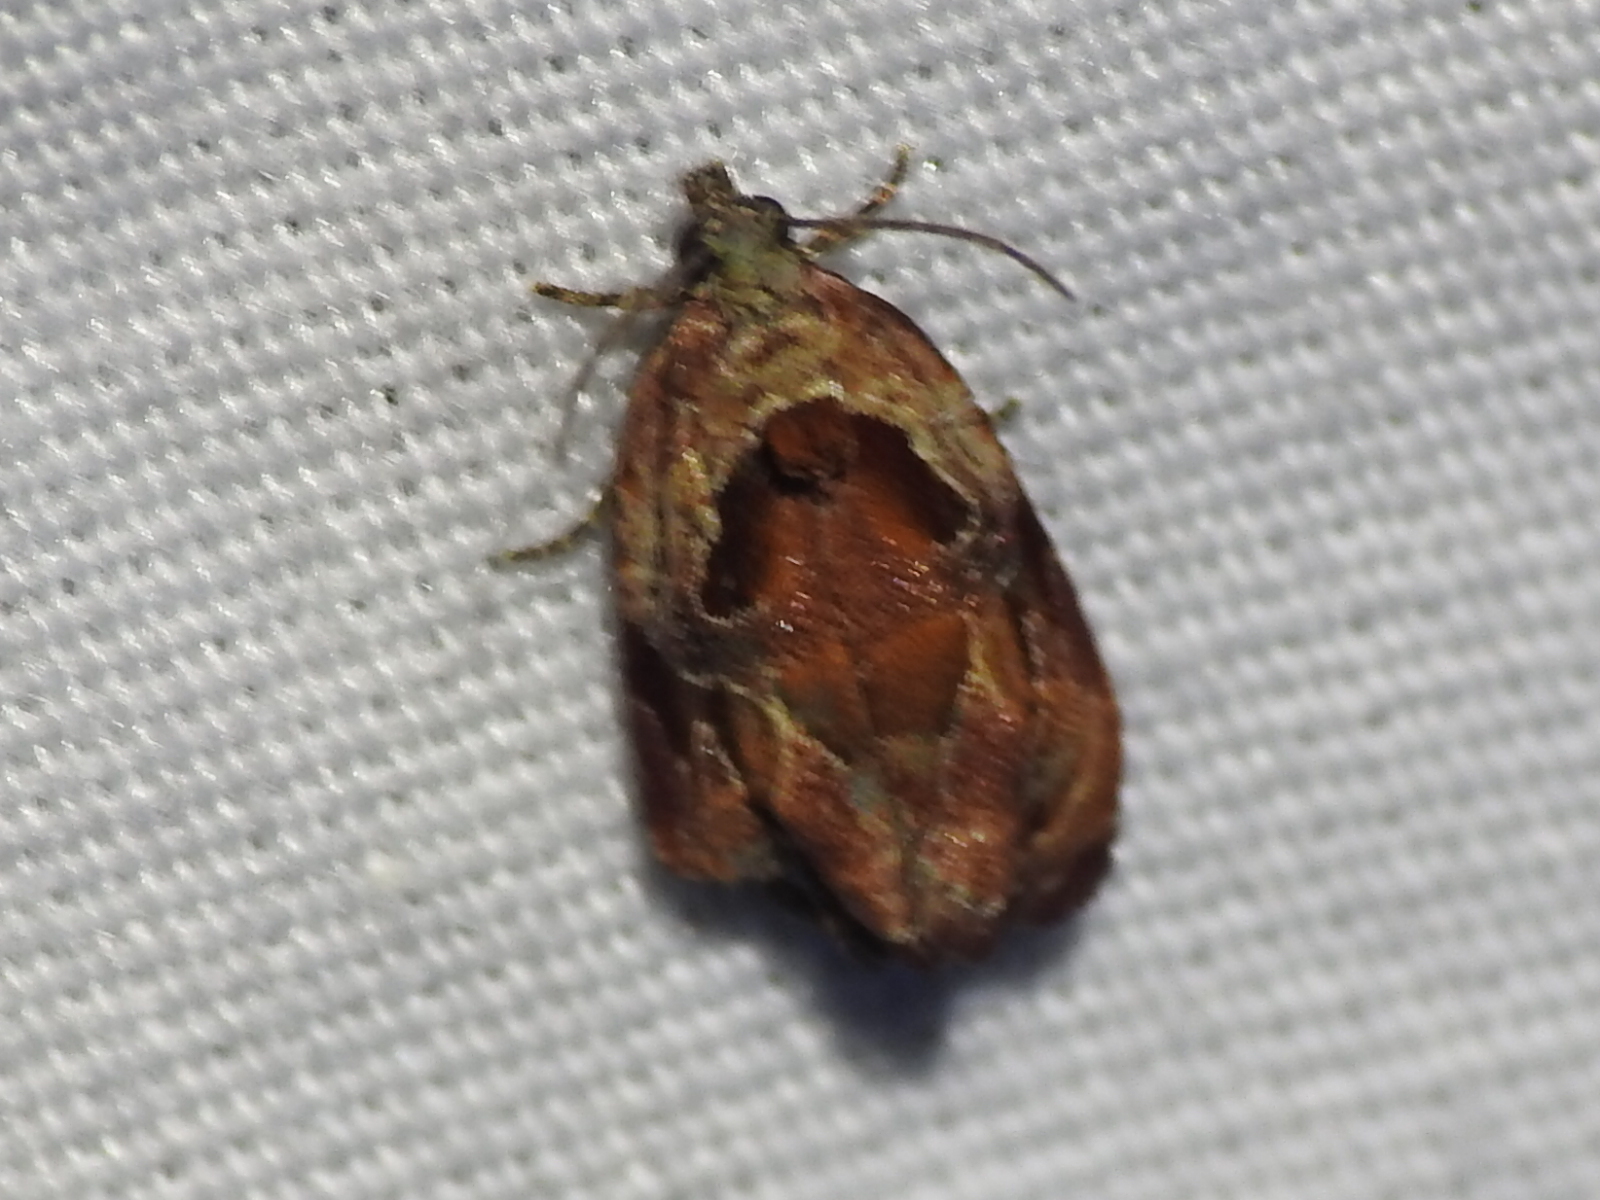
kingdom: Animalia
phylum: Arthropoda
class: Insecta
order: Lepidoptera
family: Tortricidae
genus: Zomaria
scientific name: Zomaria interruptolineana
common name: Broken-lined zomaria moth
